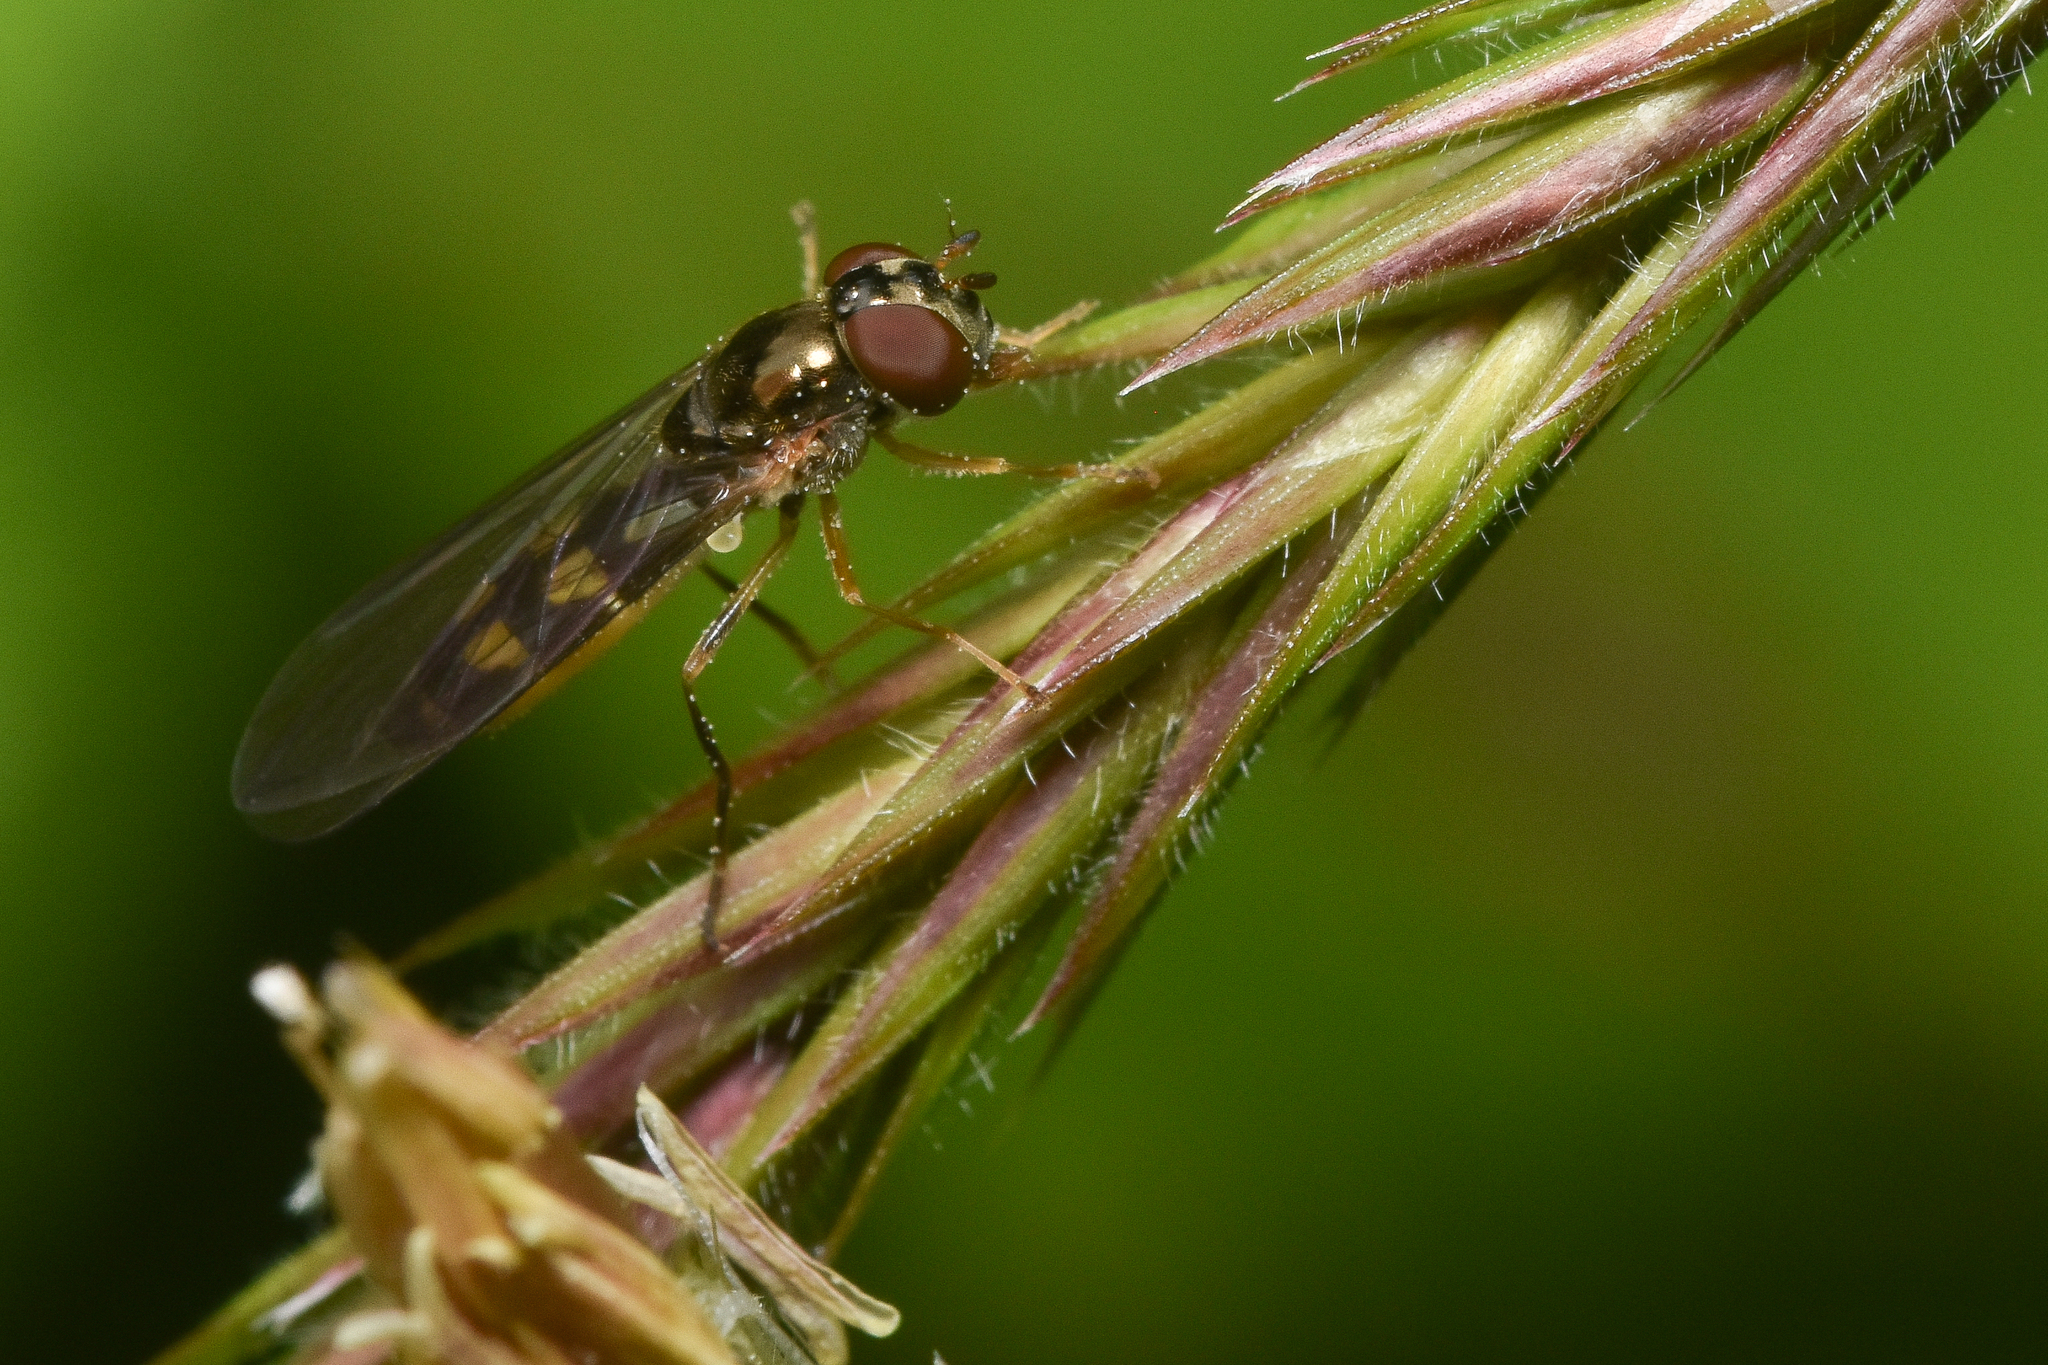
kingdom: Animalia
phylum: Arthropoda
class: Insecta
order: Diptera
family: Syrphidae
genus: Melanostoma
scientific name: Melanostoma mellina
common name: Hover fly
